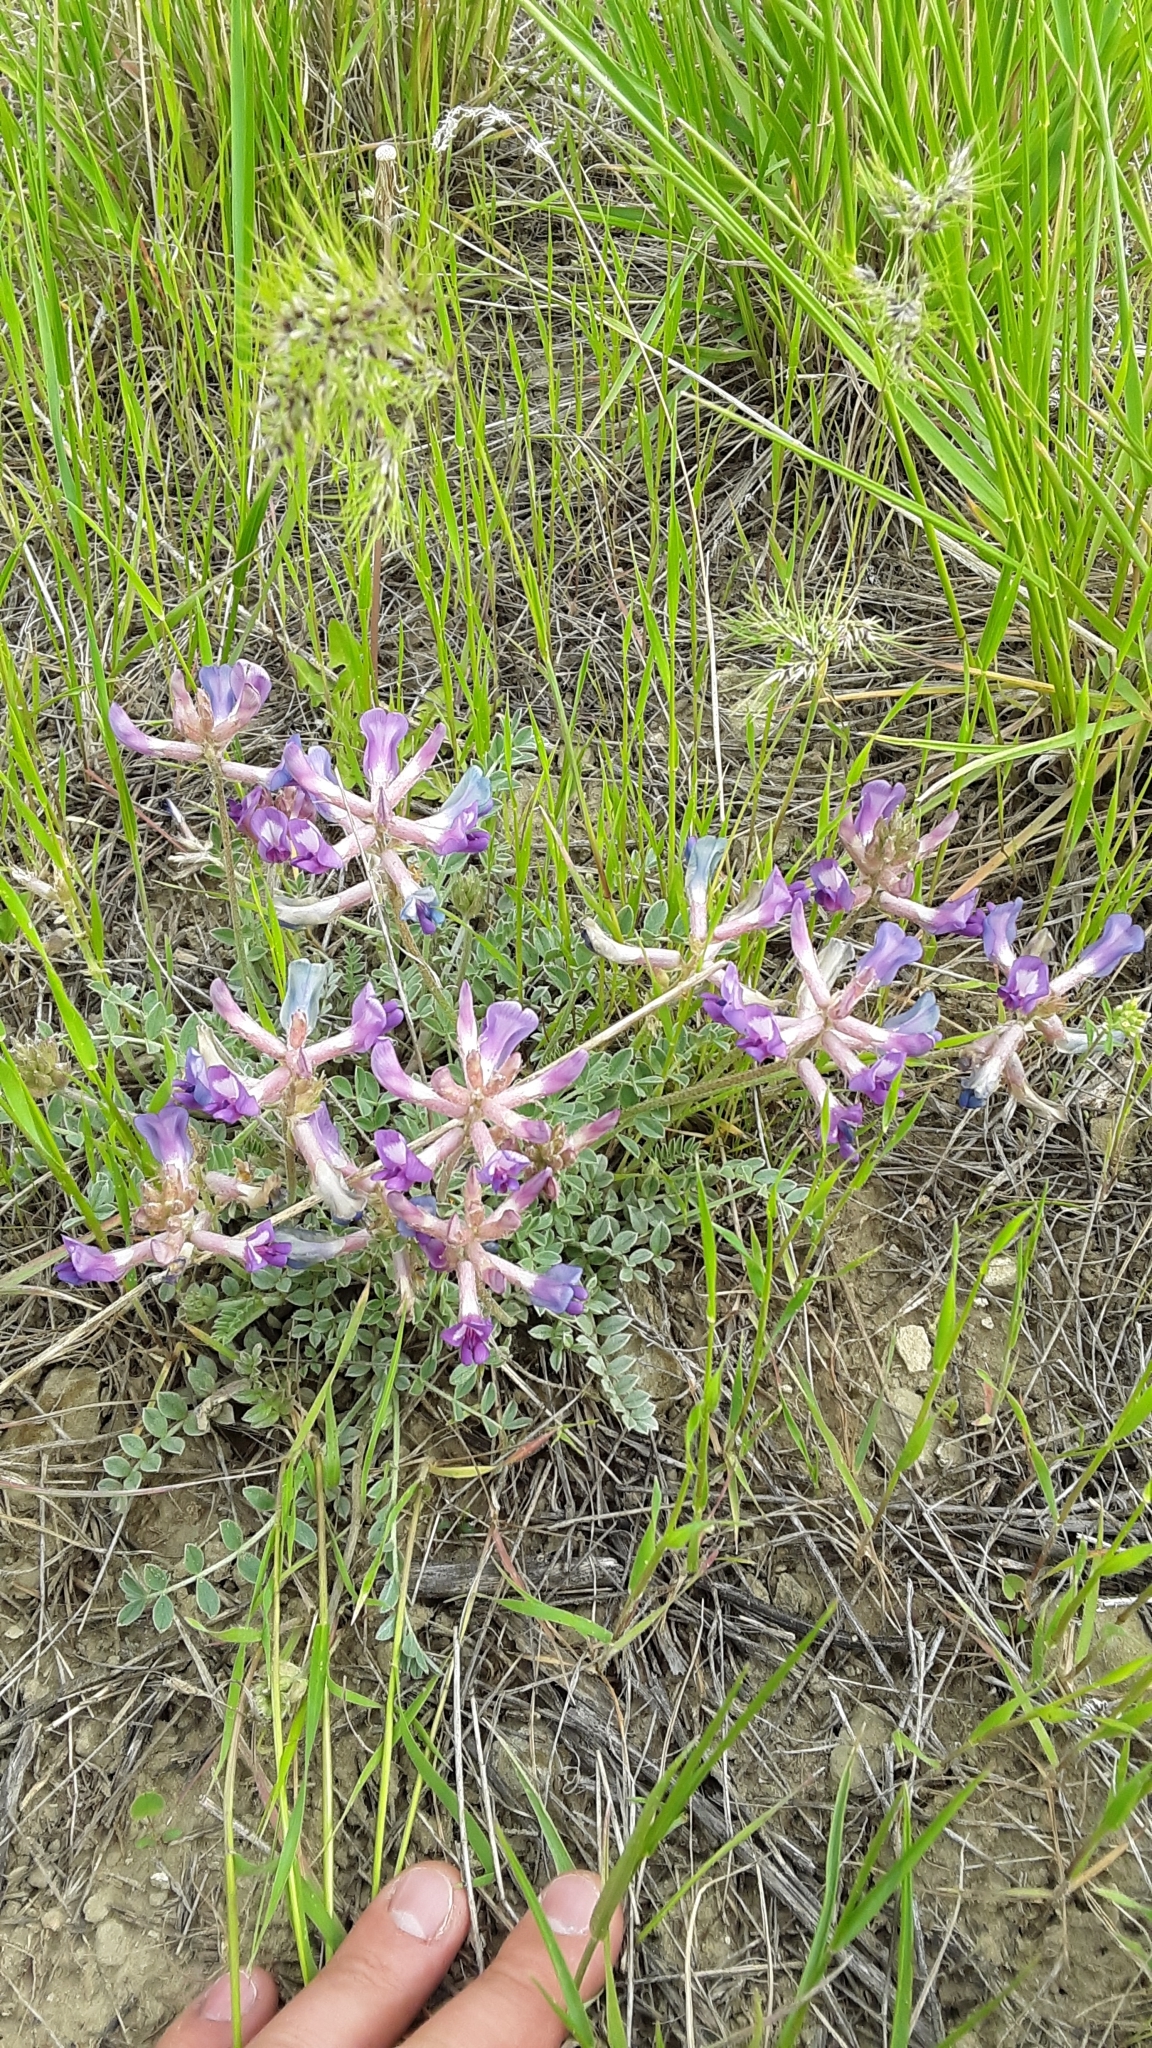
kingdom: Plantae
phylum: Tracheophyta
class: Magnoliopsida
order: Fabales
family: Fabaceae
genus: Astragalus
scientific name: Astragalus missouriensis
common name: Missouri milk-vetch
